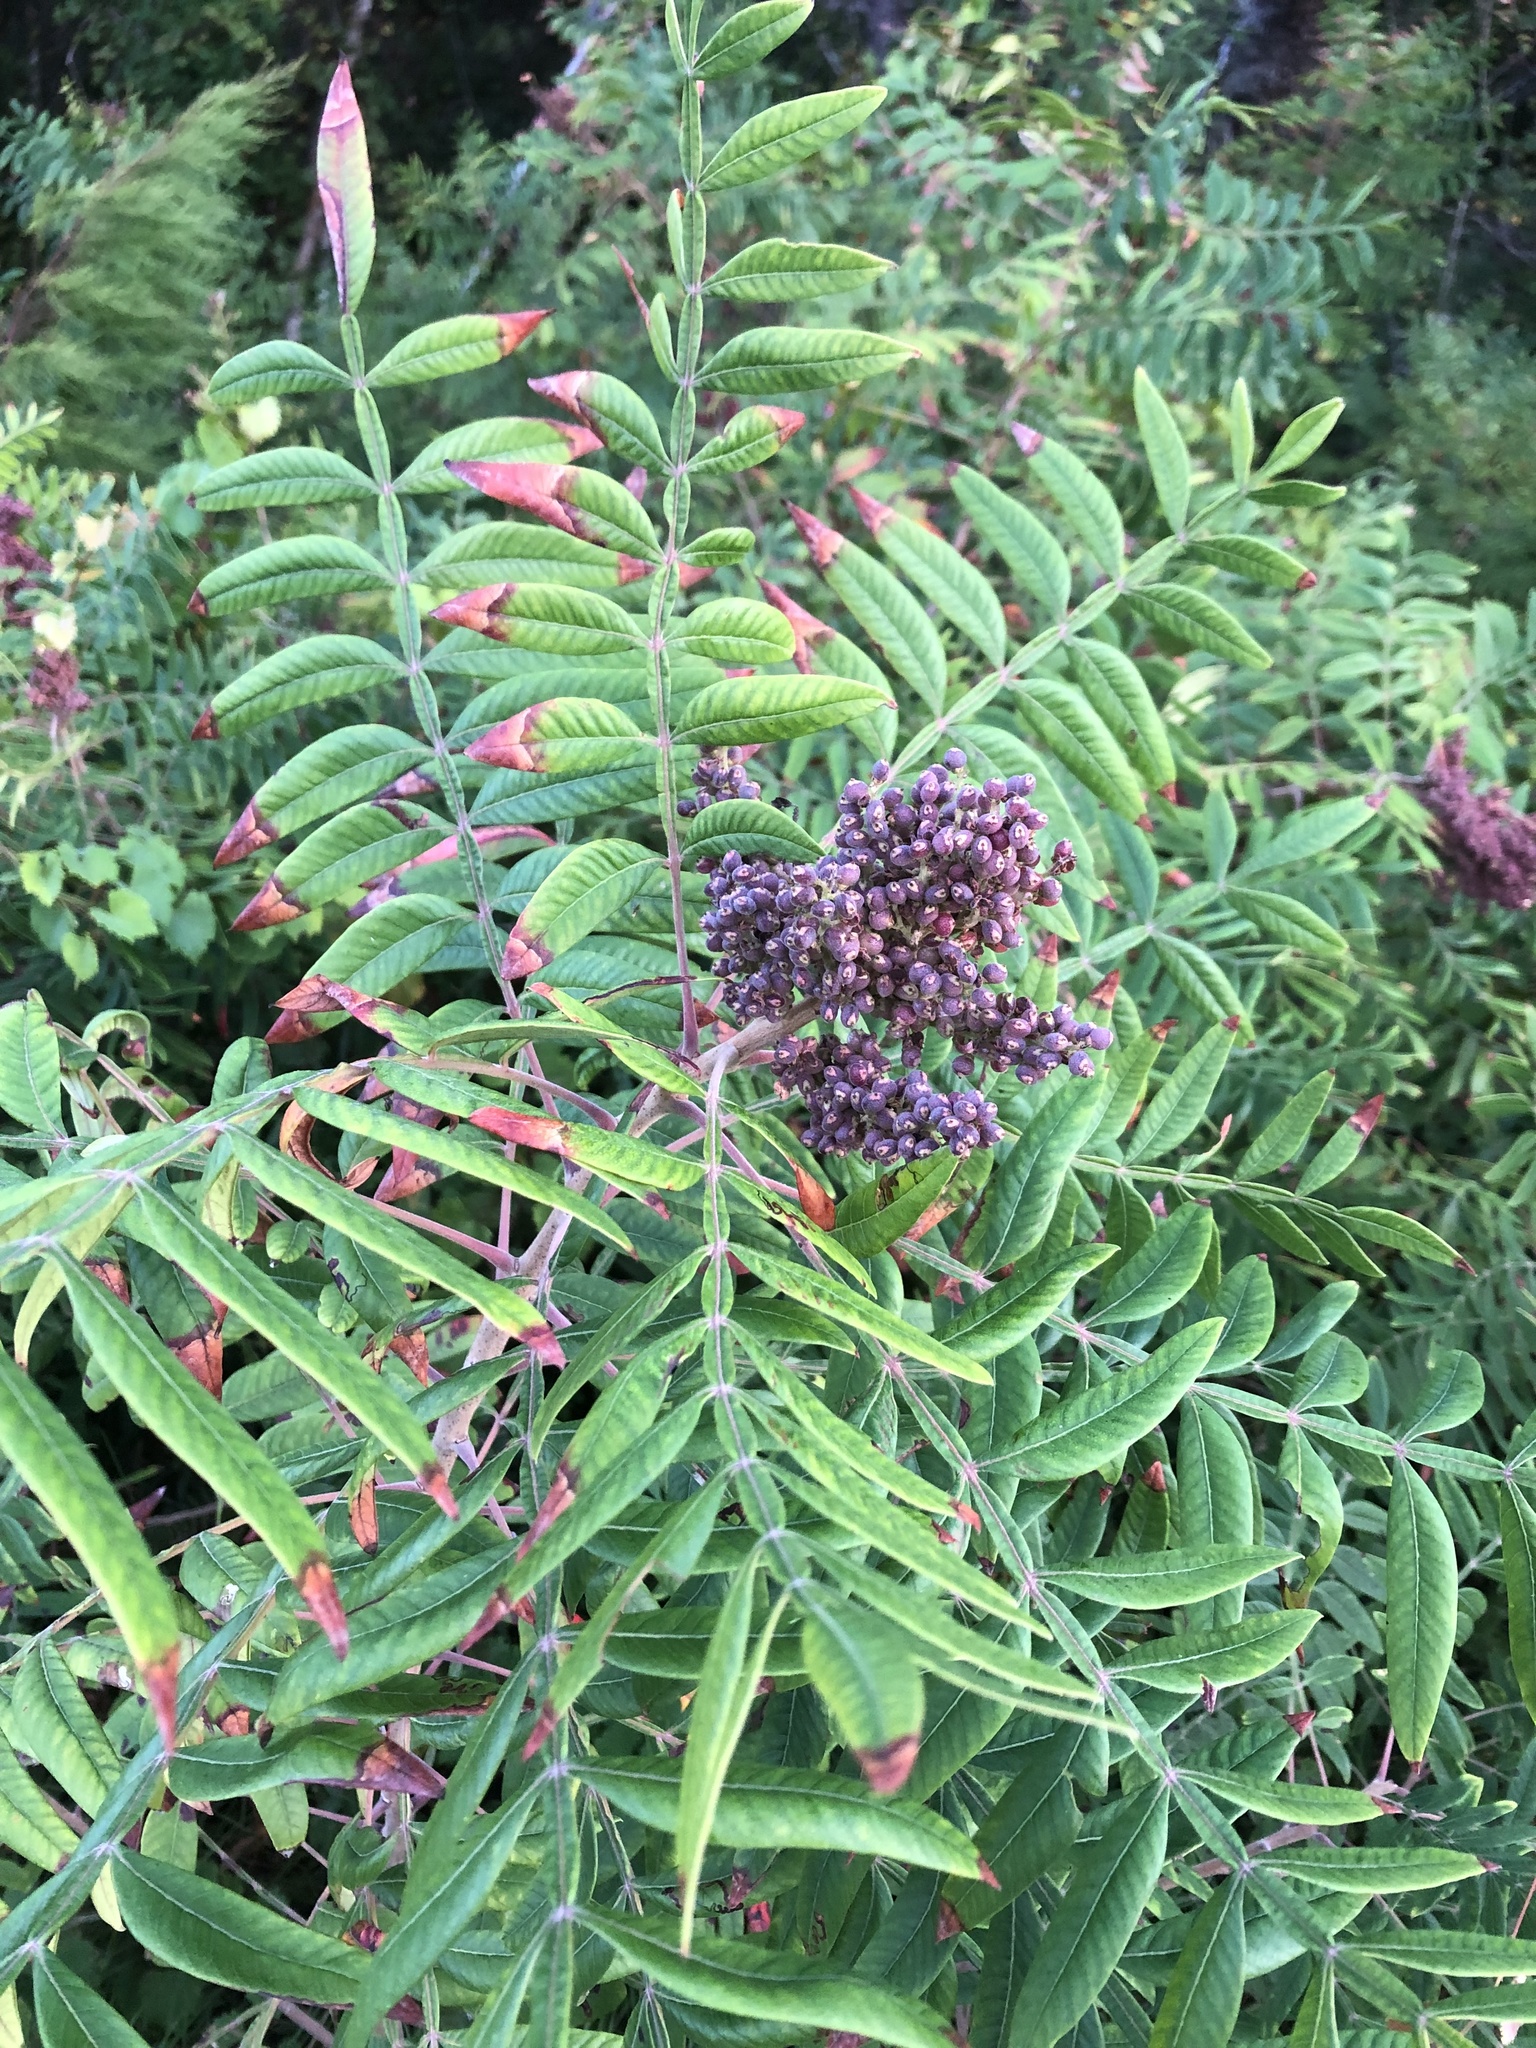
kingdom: Plantae
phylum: Tracheophyta
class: Magnoliopsida
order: Sapindales
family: Anacardiaceae
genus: Rhus
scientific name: Rhus copallina
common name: Shining sumac
